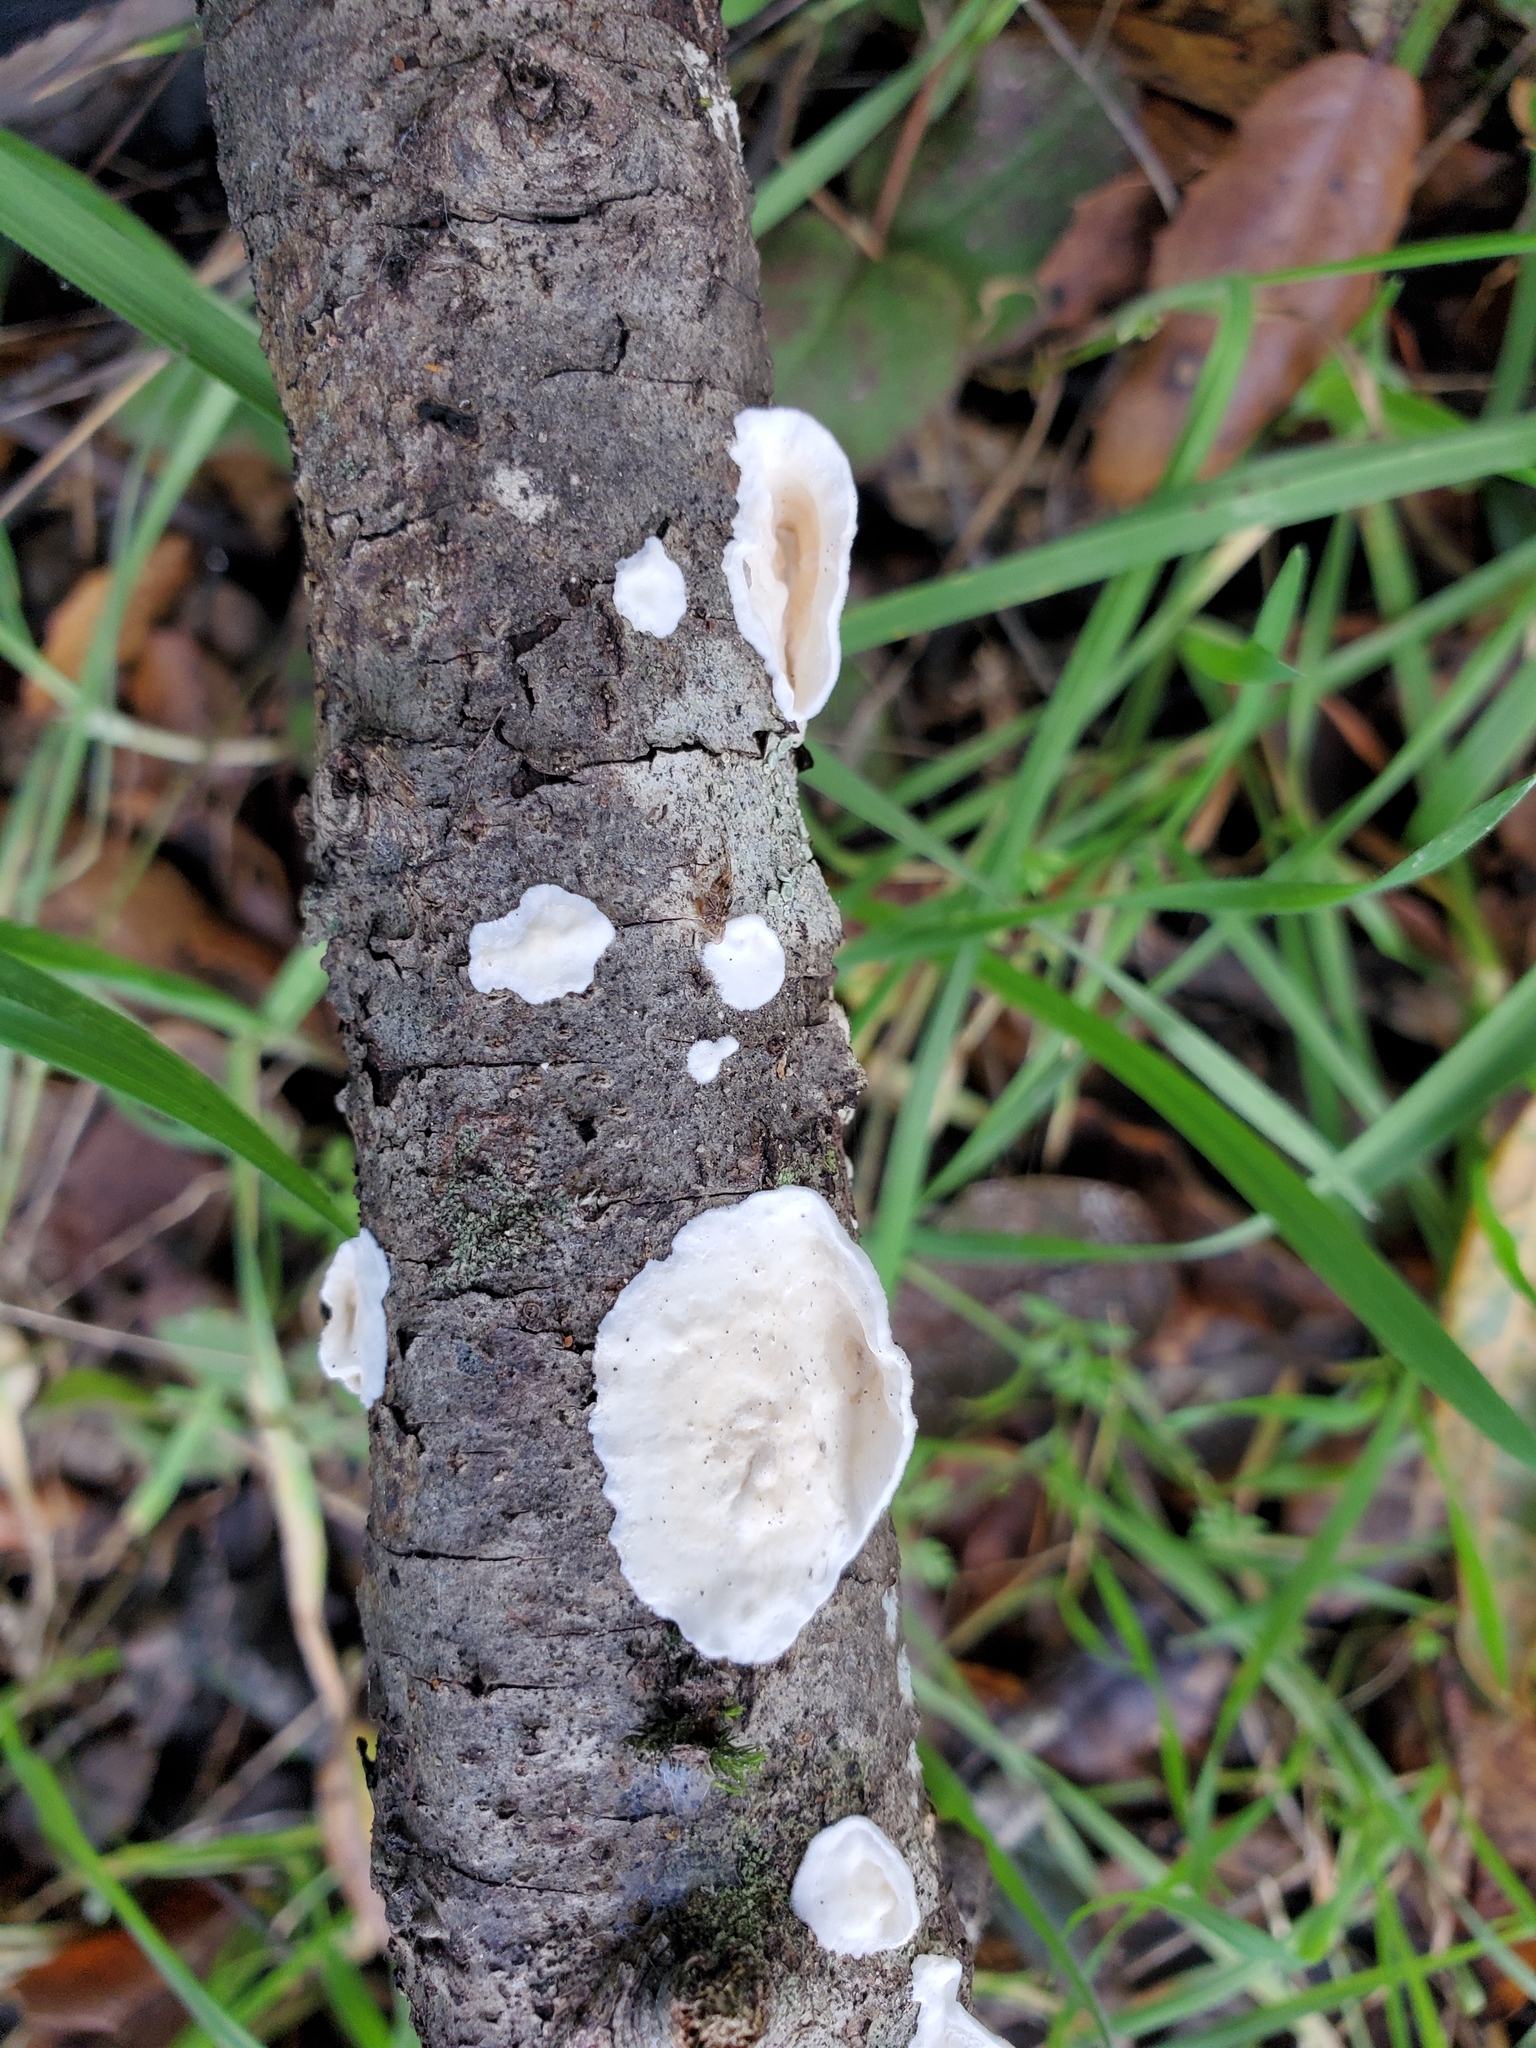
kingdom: Fungi
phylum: Basidiomycota
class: Agaricomycetes
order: Polyporales
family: Irpicaceae
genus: Byssomerulius
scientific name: Byssomerulius corium
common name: Netted crust
